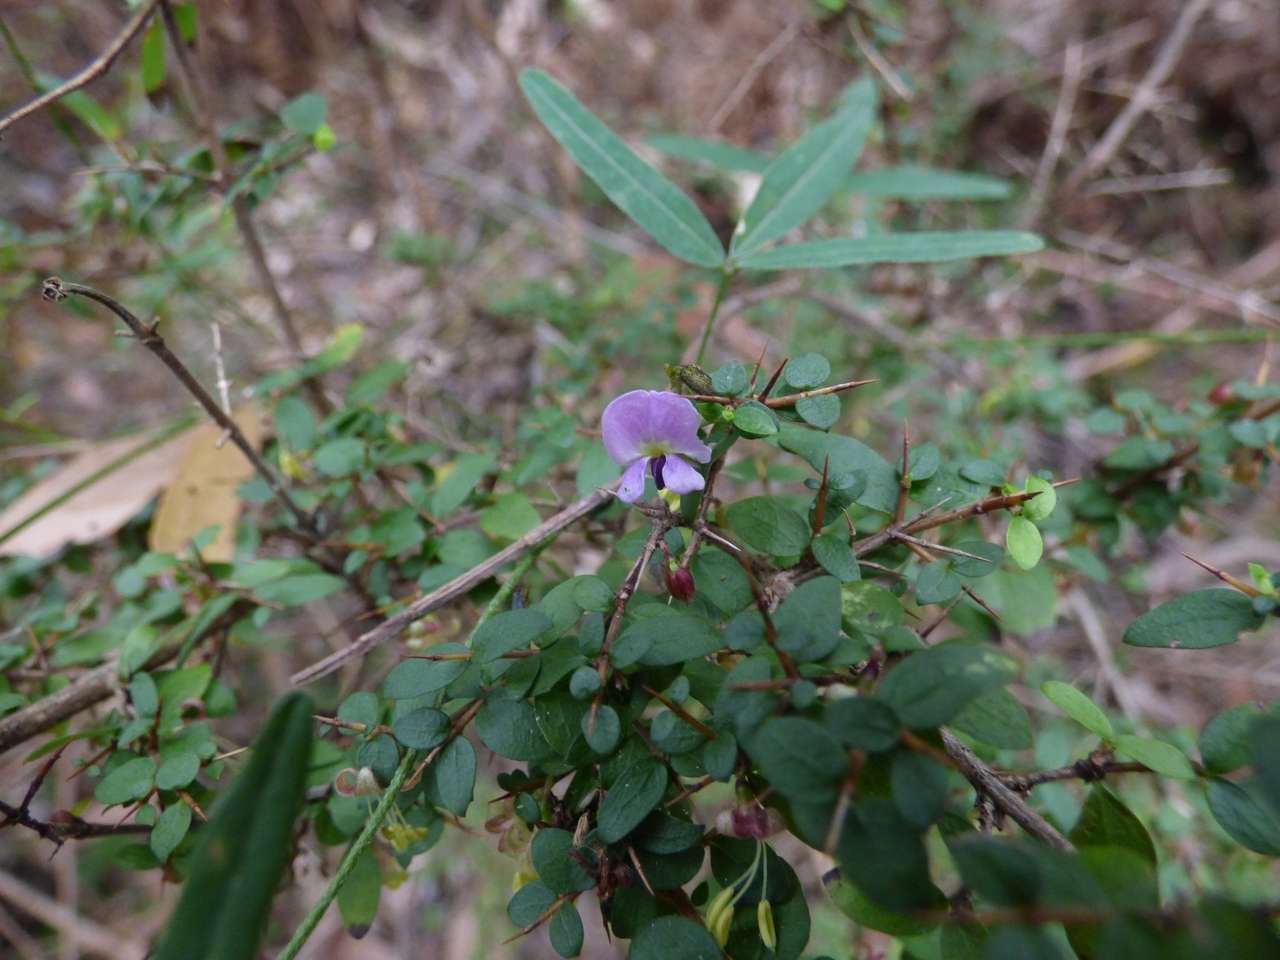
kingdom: Plantae
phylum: Tracheophyta
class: Magnoliopsida
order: Fabales
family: Fabaceae
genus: Glycine
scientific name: Glycine clandestina
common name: Twining glycine
